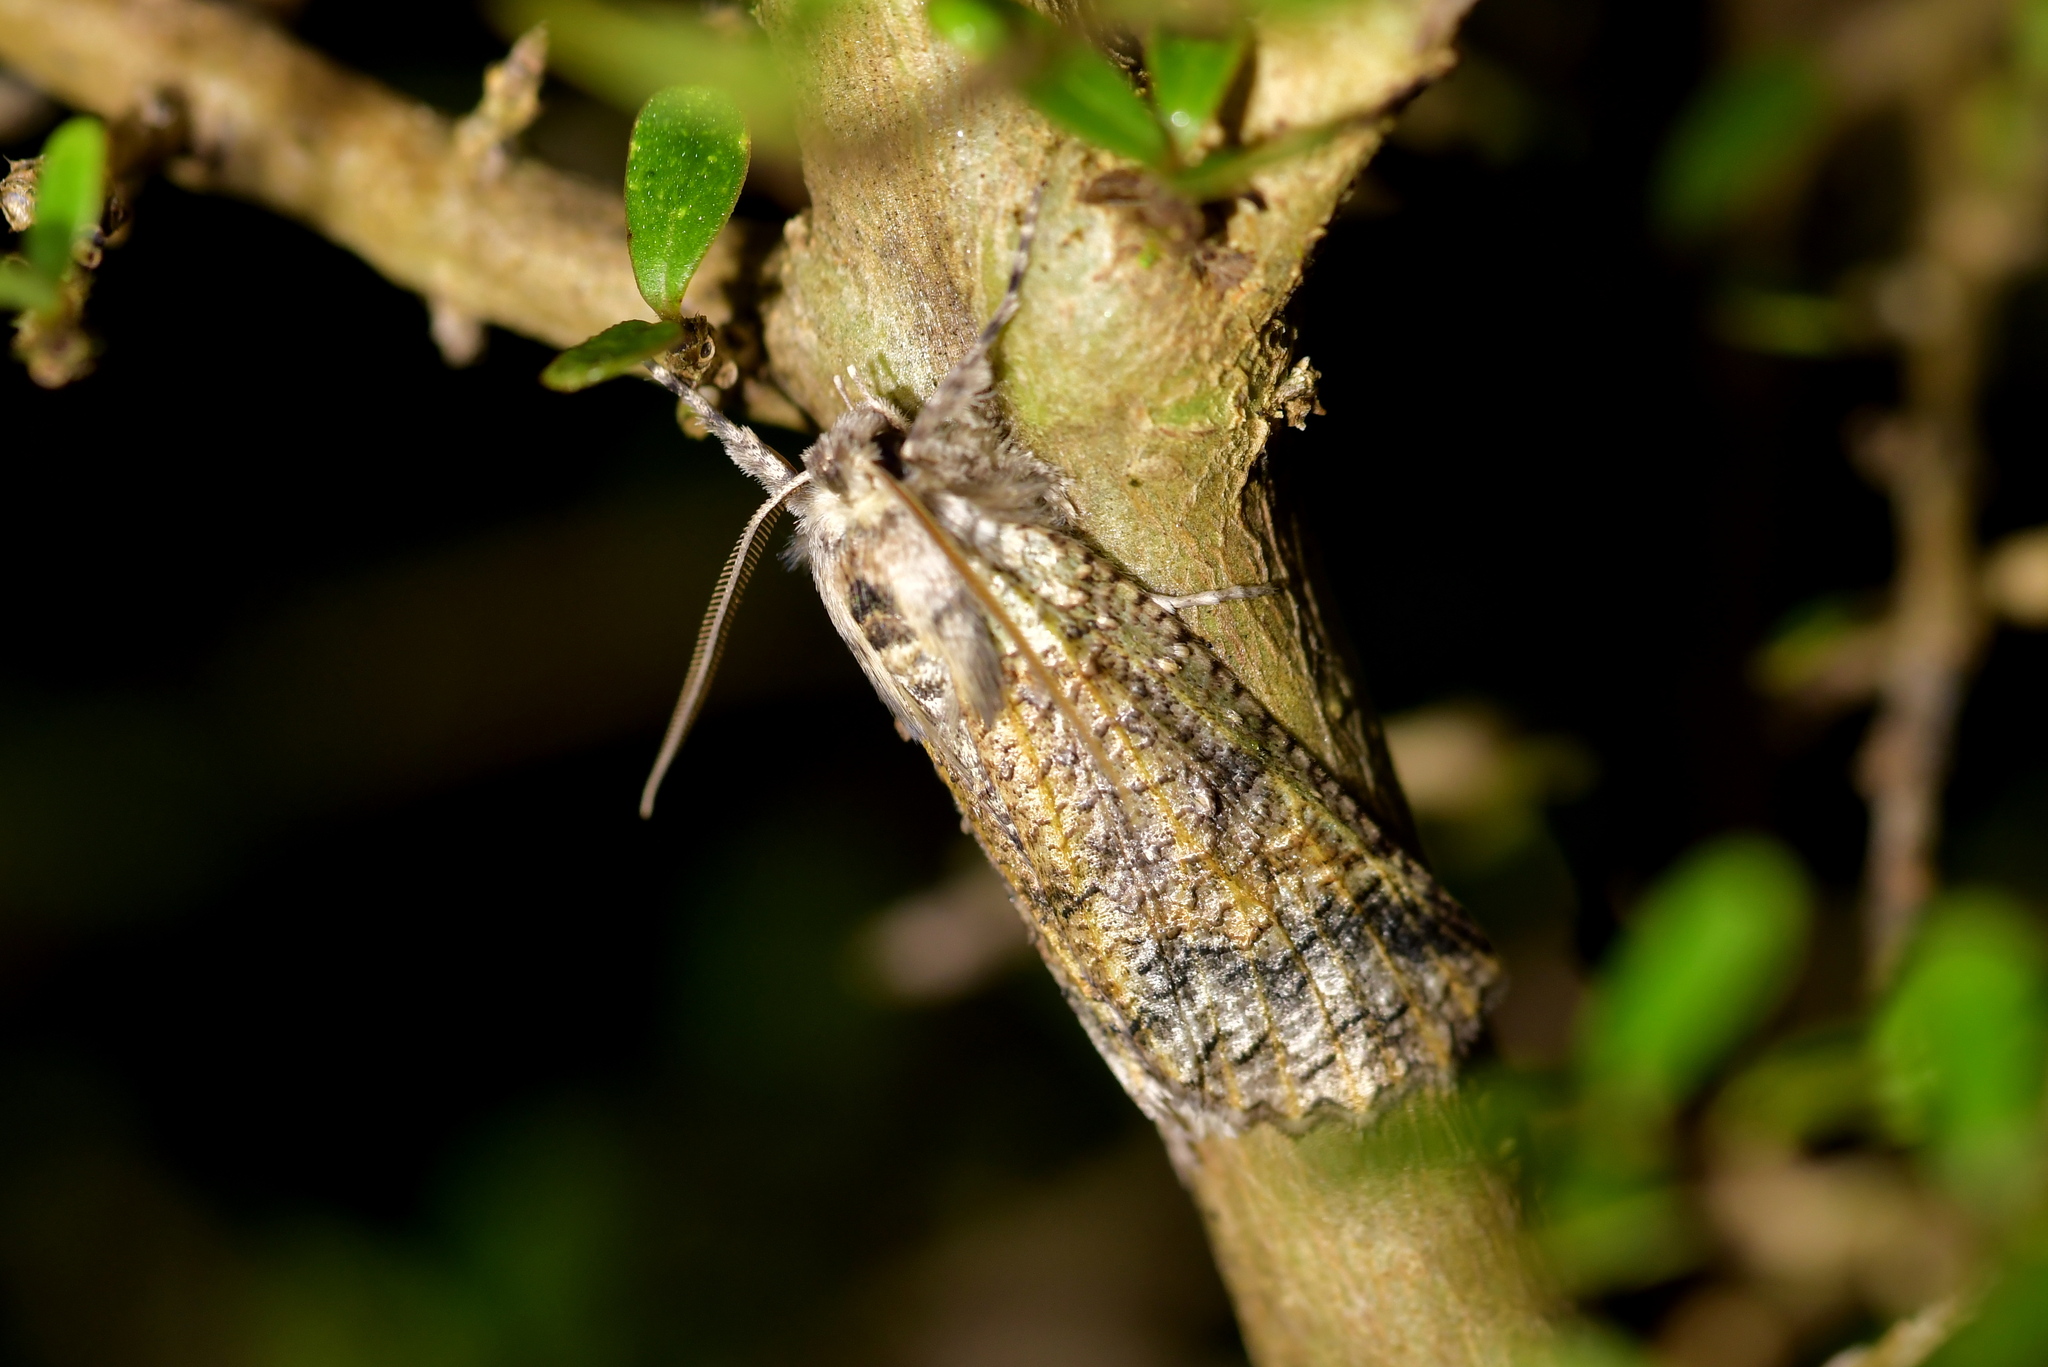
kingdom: Animalia
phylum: Arthropoda
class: Insecta
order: Lepidoptera
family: Geometridae
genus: Declana
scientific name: Declana floccosa
